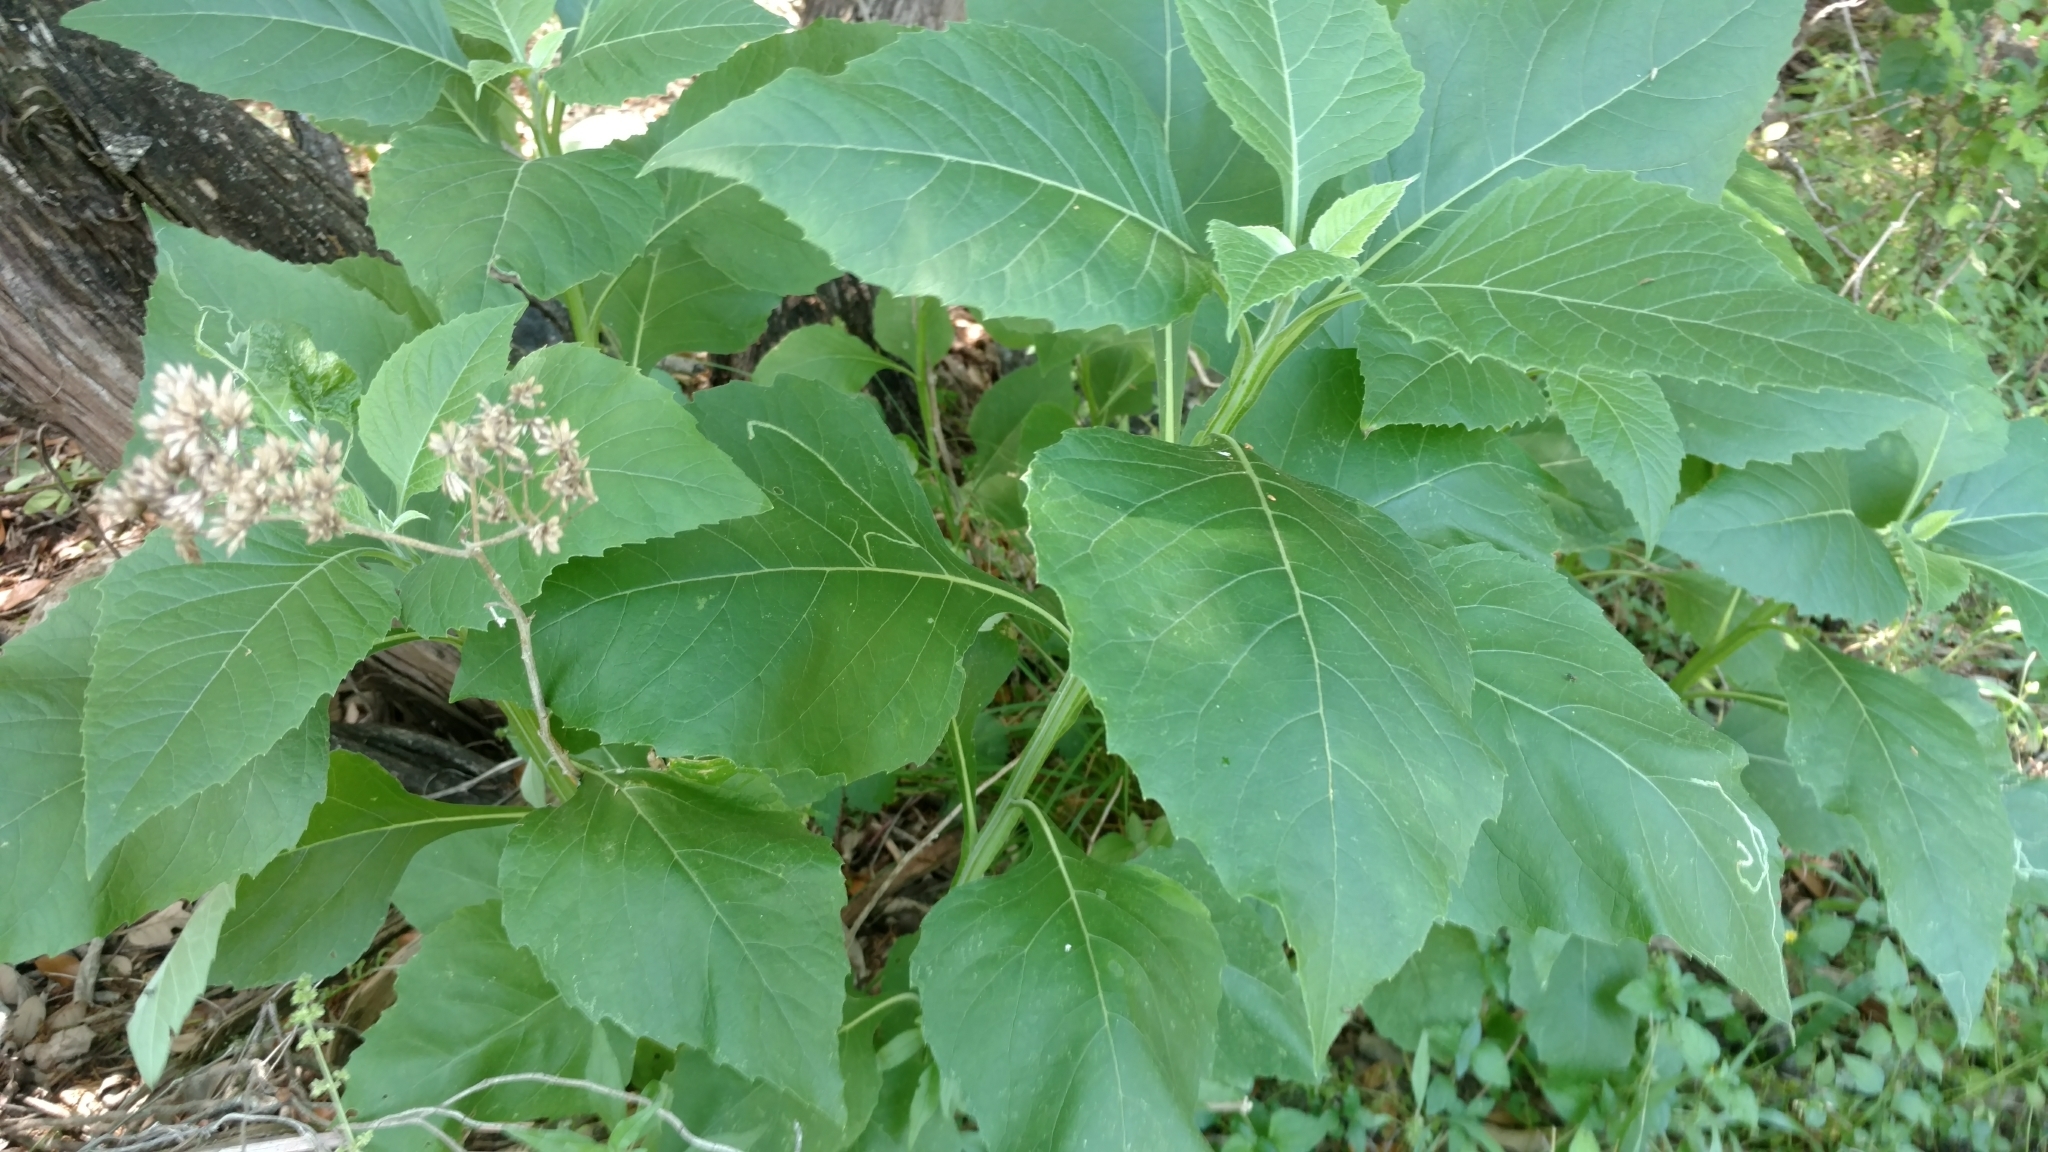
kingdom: Plantae
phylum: Tracheophyta
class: Magnoliopsida
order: Asterales
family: Asteraceae
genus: Verbesina
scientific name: Verbesina virginica
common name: Frostweed
